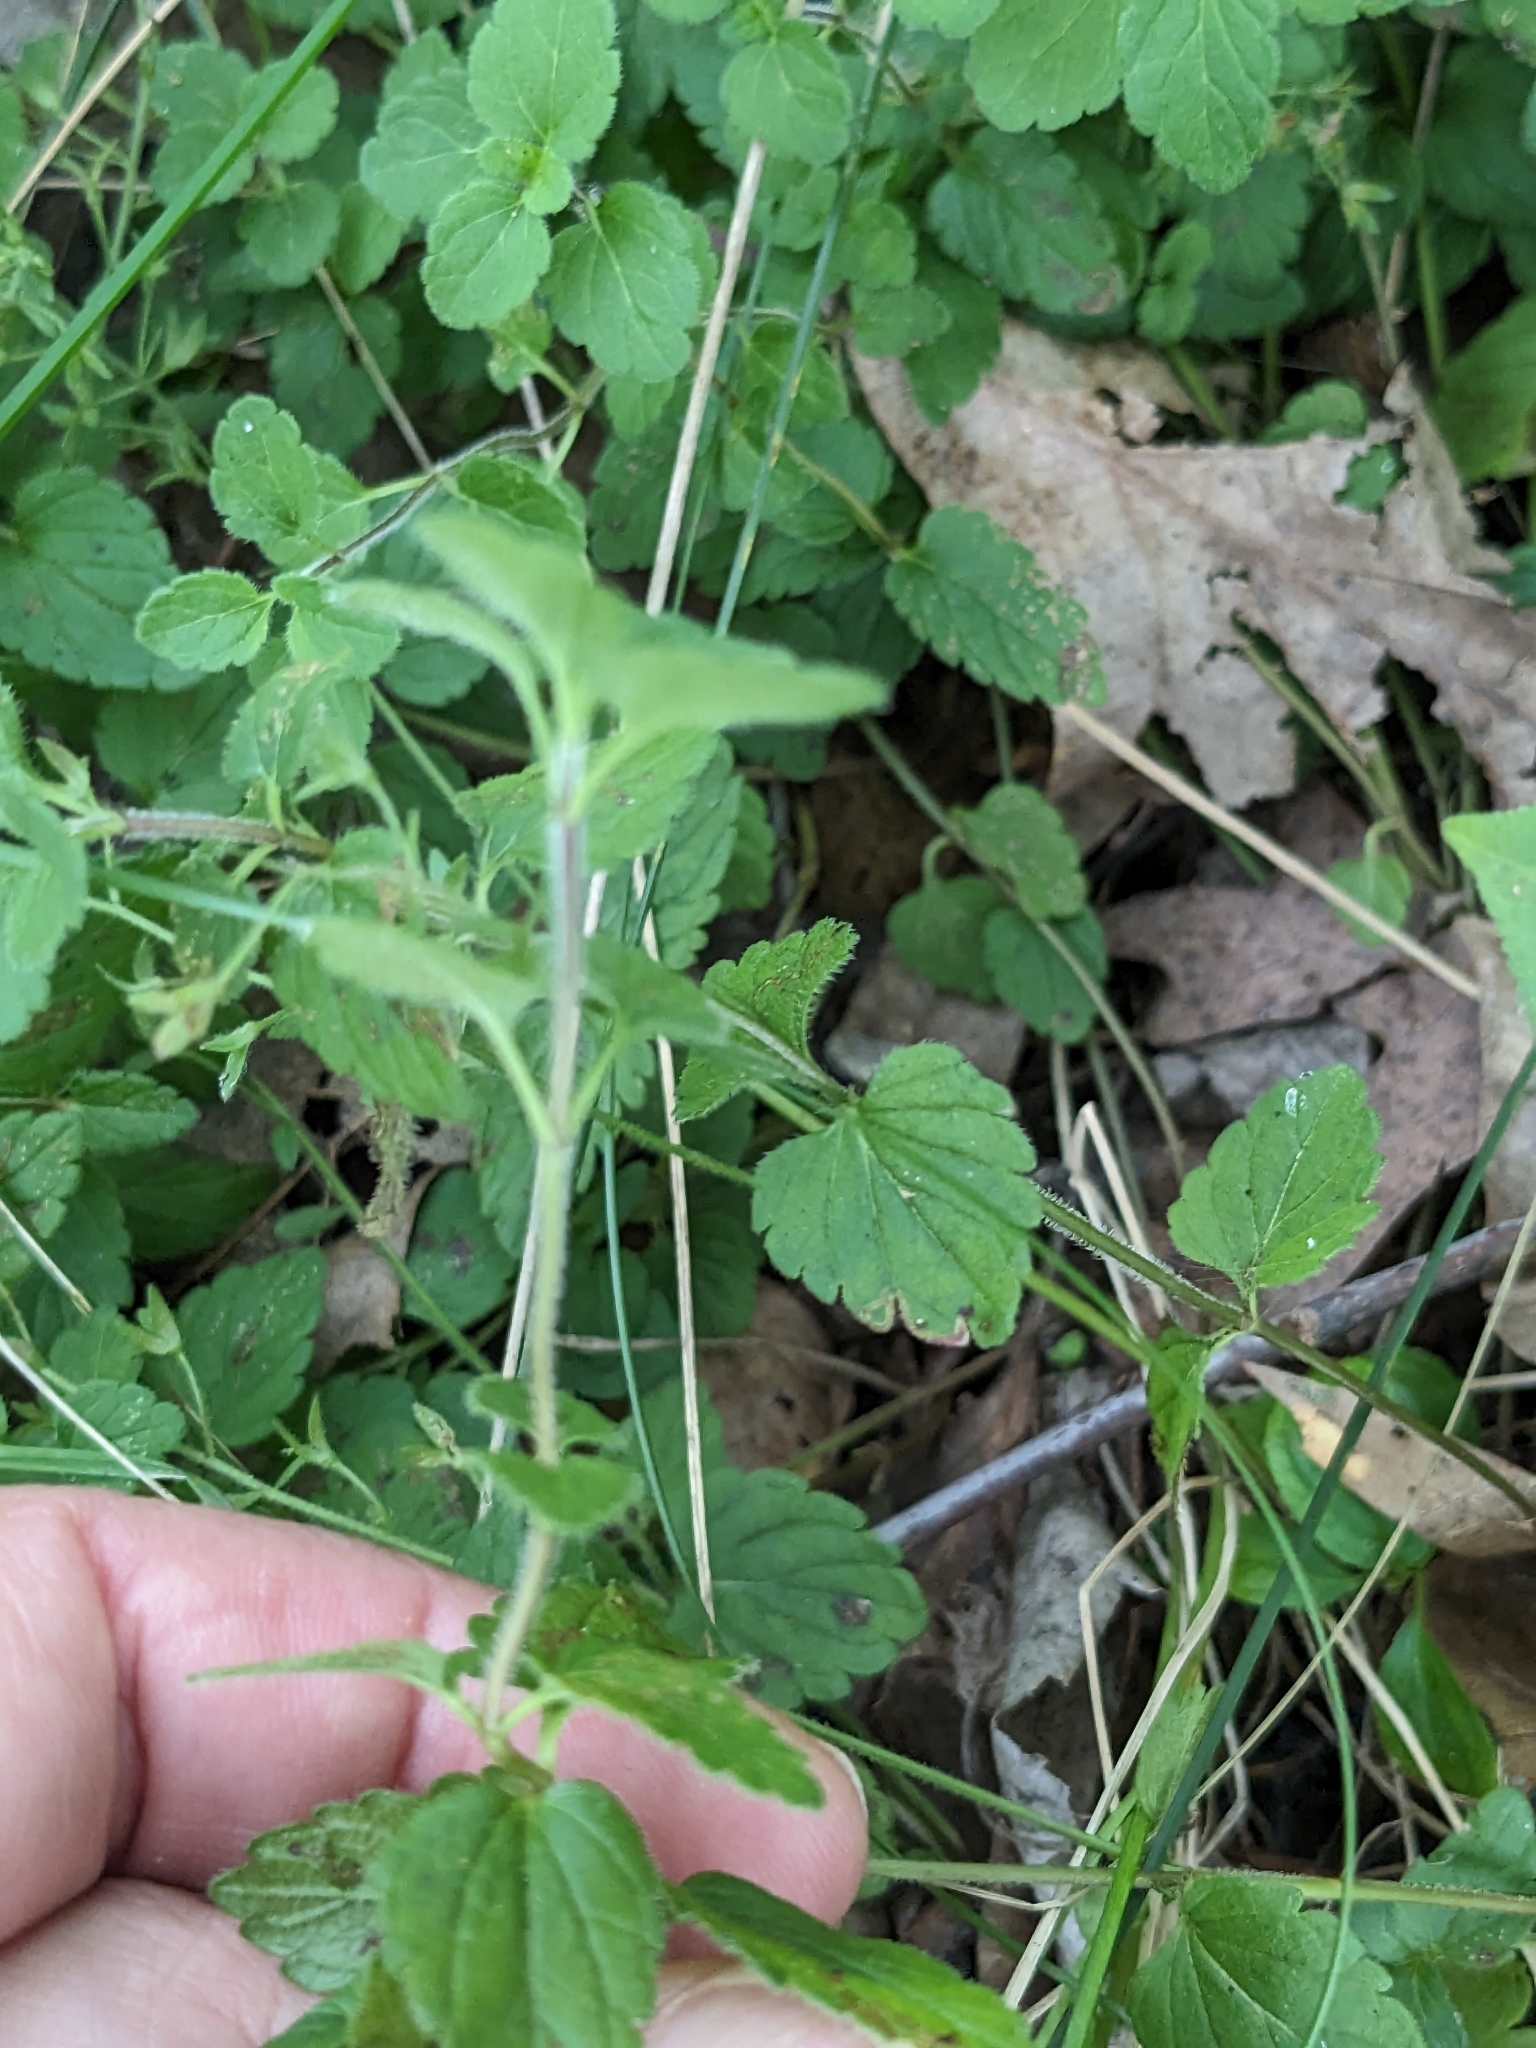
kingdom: Plantae
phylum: Tracheophyta
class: Magnoliopsida
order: Lamiales
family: Plantaginaceae
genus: Veronica
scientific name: Veronica chamaedrys
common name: Germander speedwell
